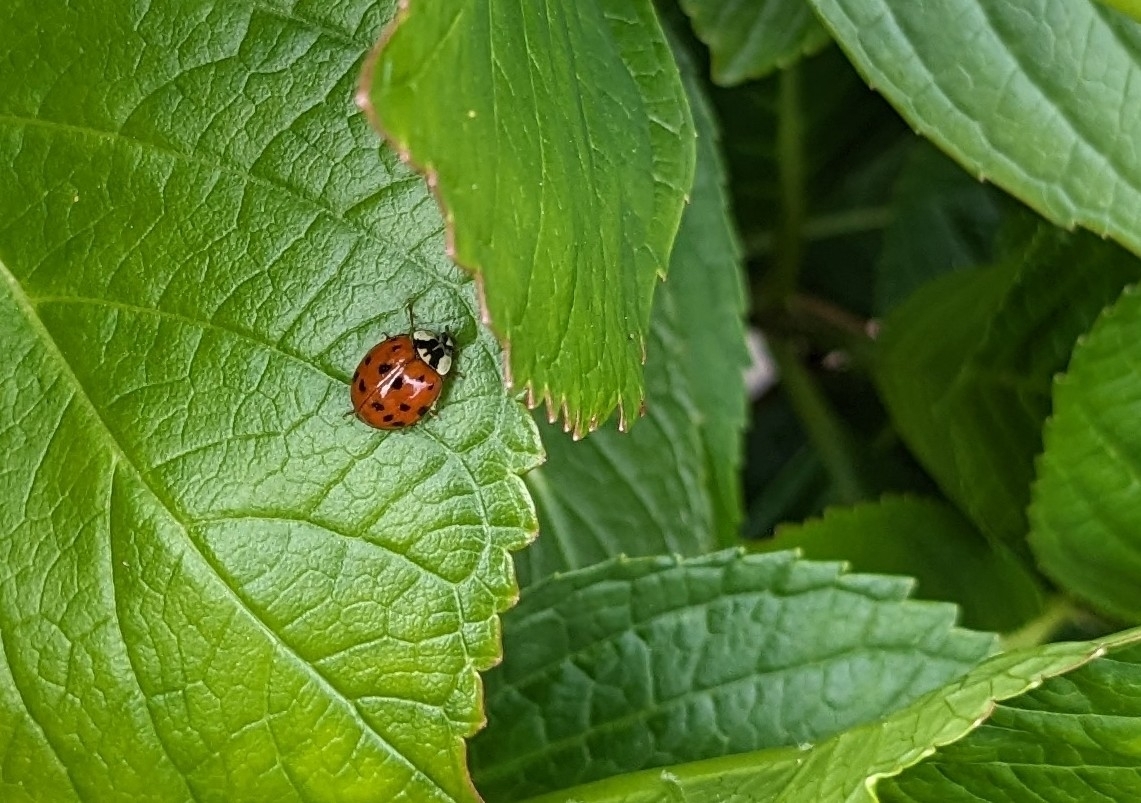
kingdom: Animalia
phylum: Arthropoda
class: Insecta
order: Coleoptera
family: Coccinellidae
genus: Harmonia
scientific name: Harmonia axyridis
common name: Harlequin ladybird
